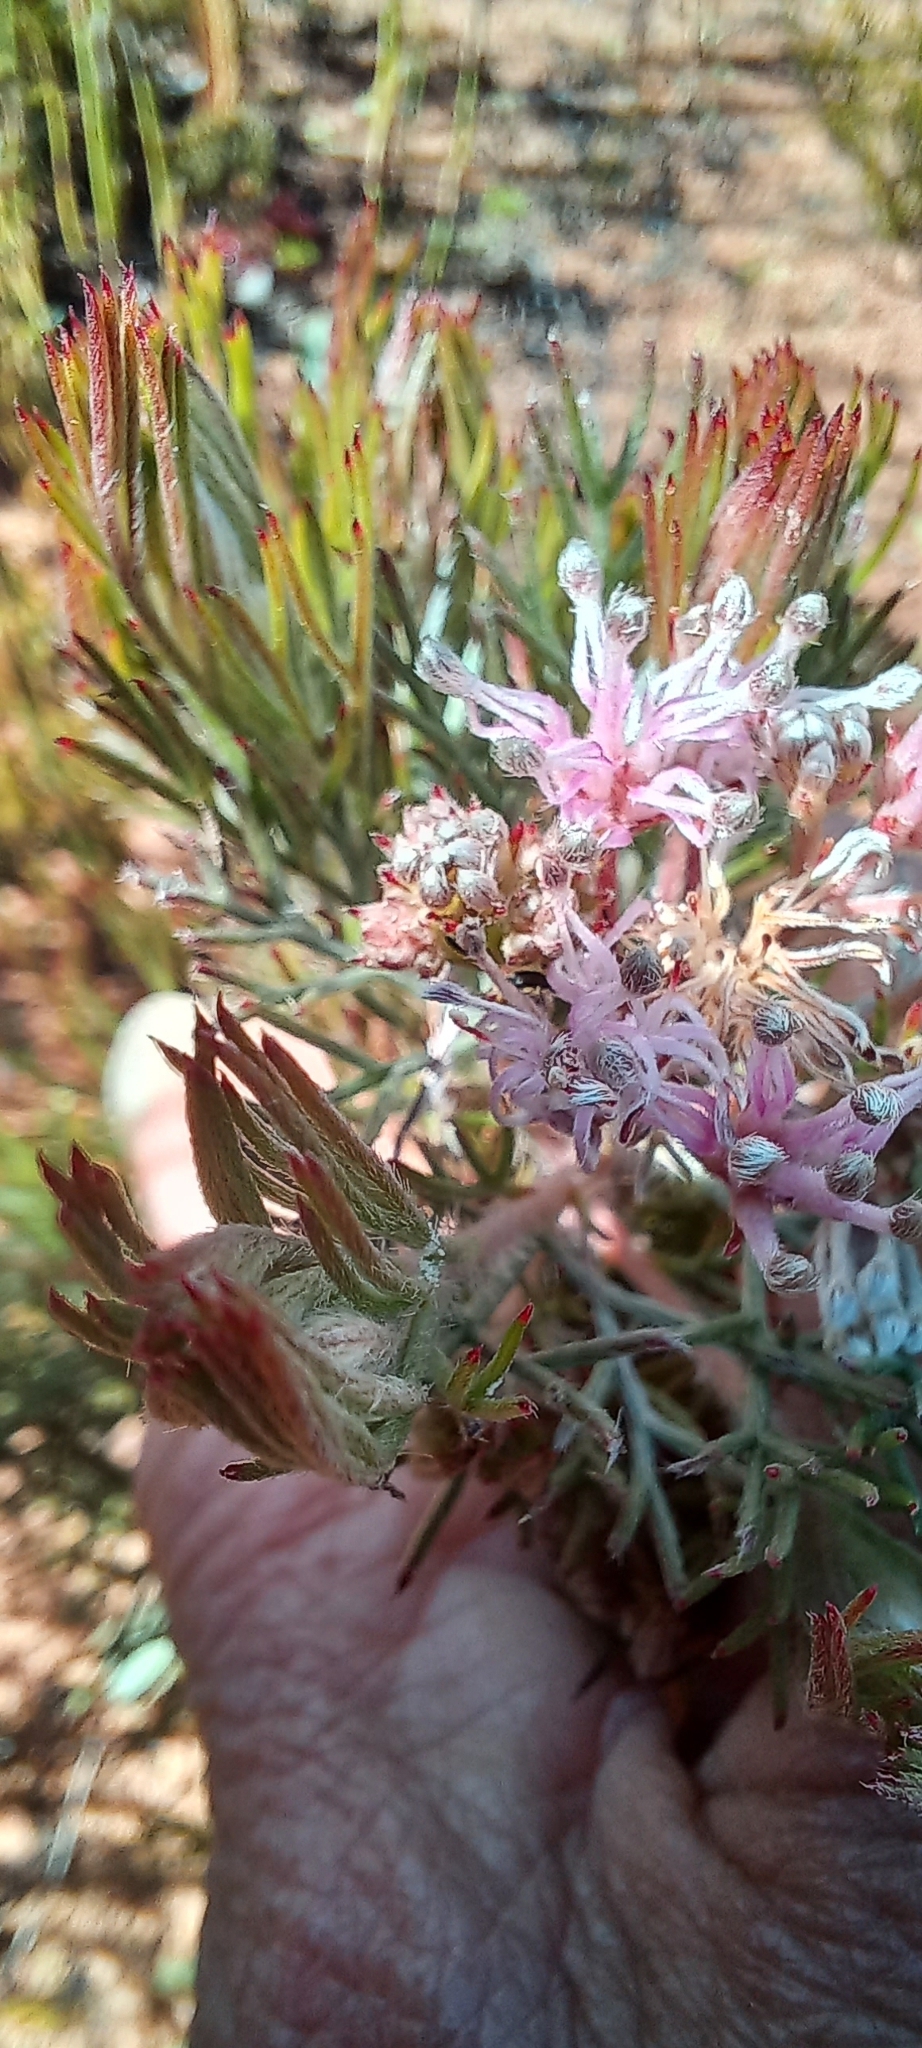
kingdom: Plantae
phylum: Tracheophyta
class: Magnoliopsida
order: Proteales
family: Proteaceae
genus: Serruria
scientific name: Serruria candicans
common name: Shiny spiderhead
